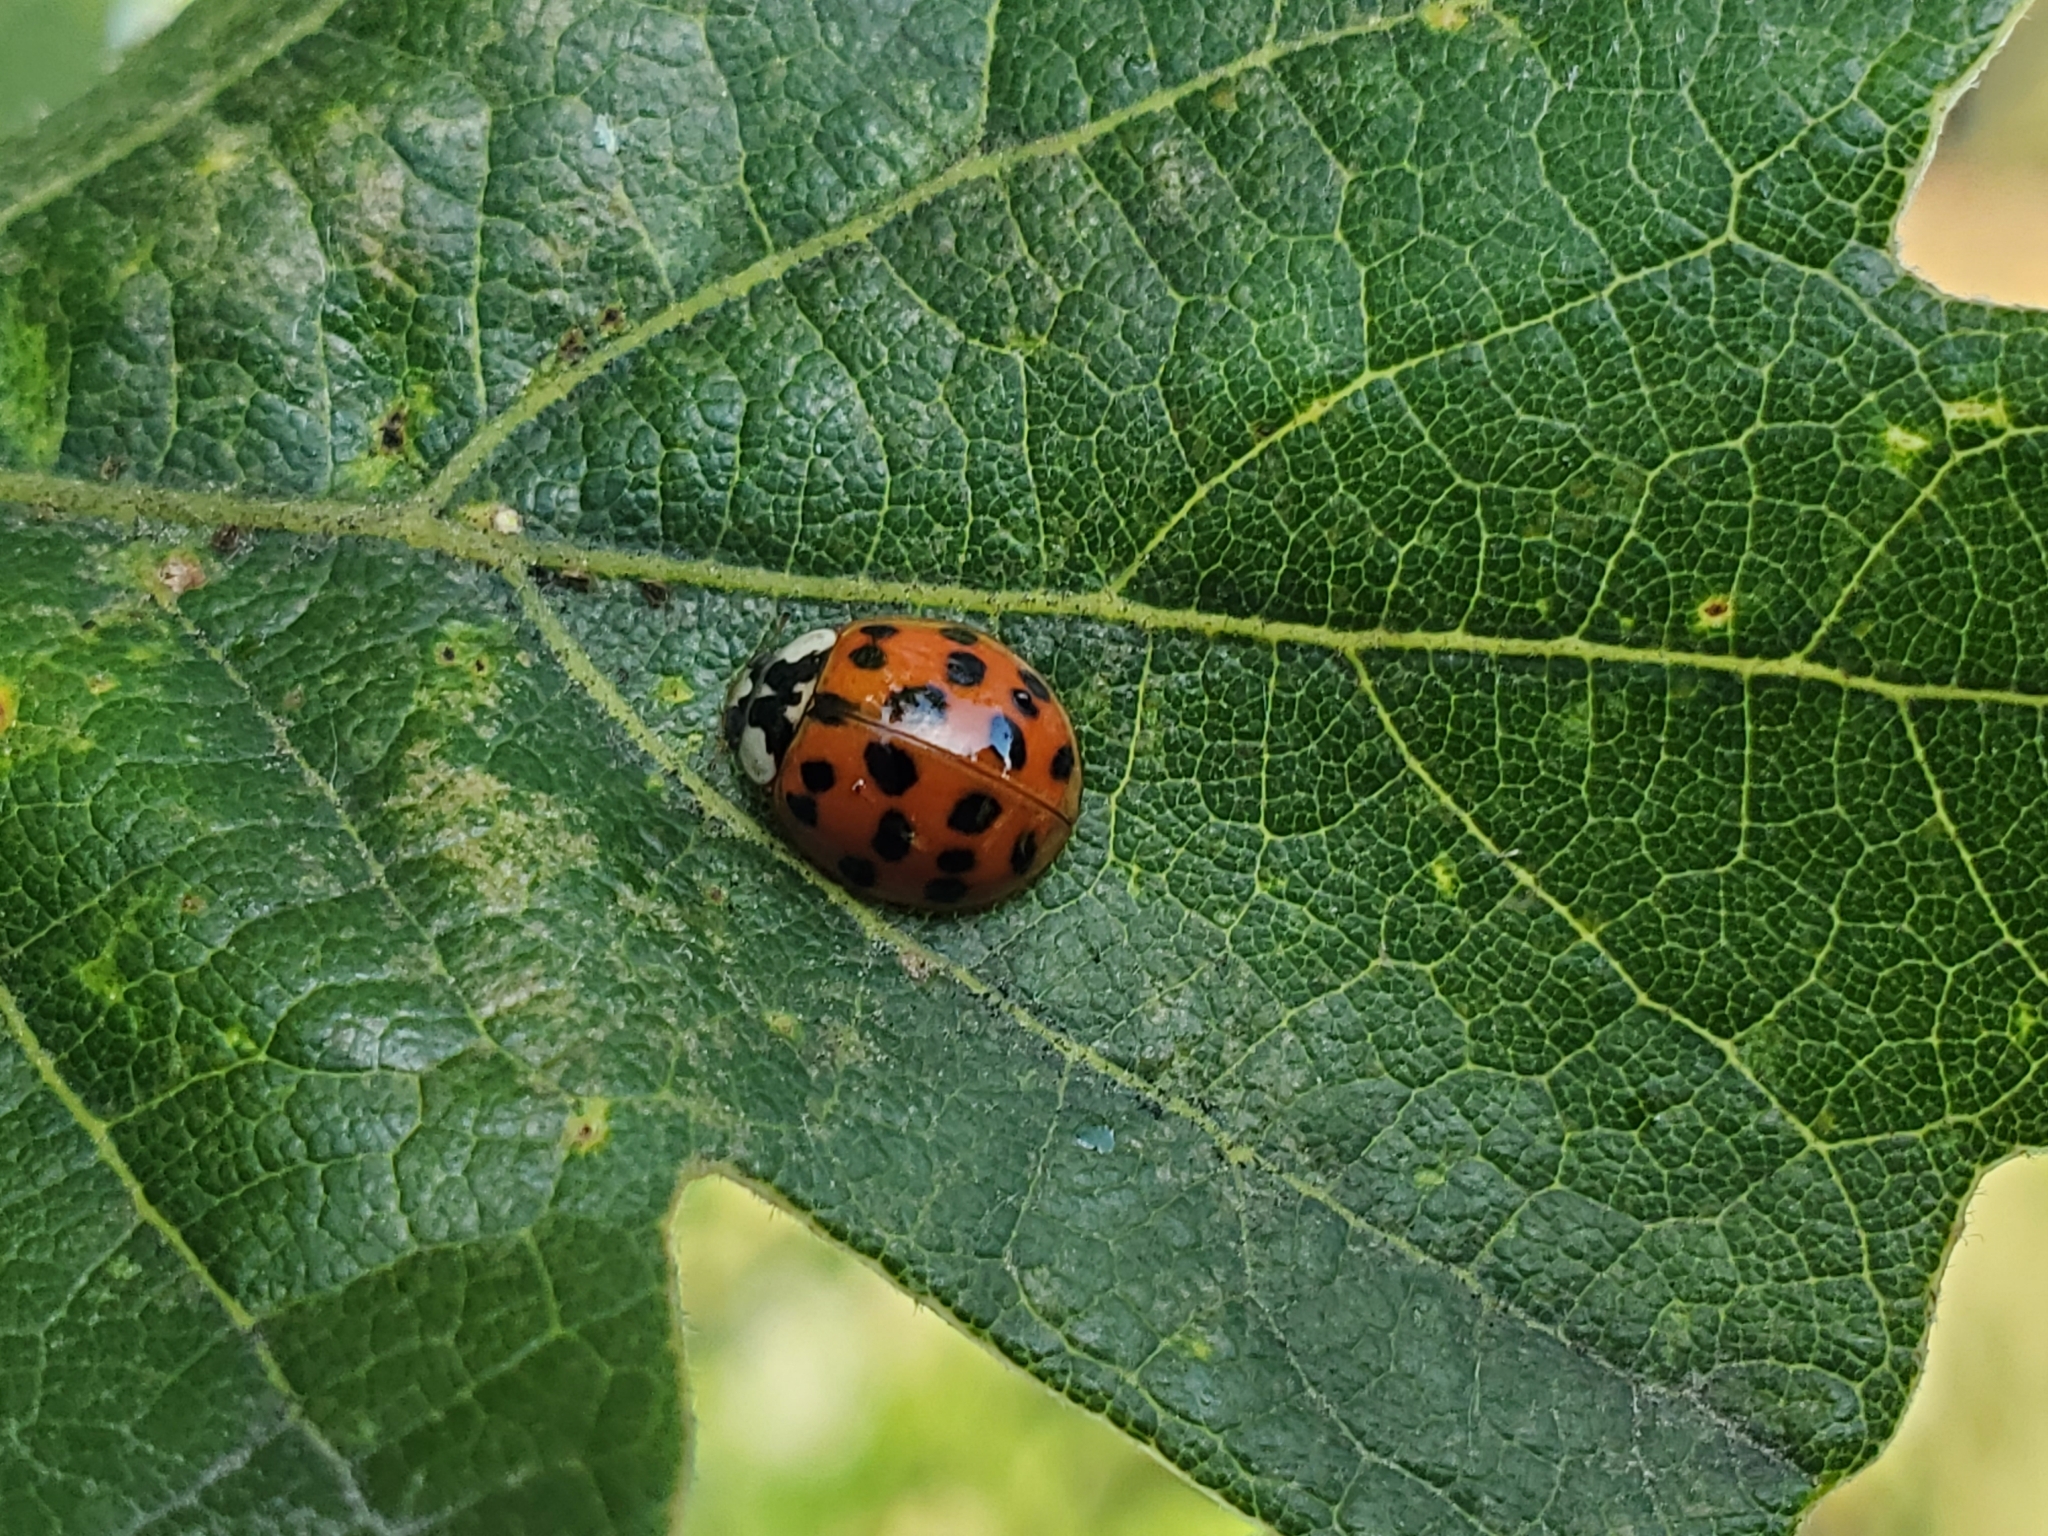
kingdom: Animalia
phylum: Arthropoda
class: Insecta
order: Coleoptera
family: Coccinellidae
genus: Harmonia
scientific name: Harmonia axyridis
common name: Harlequin ladybird
